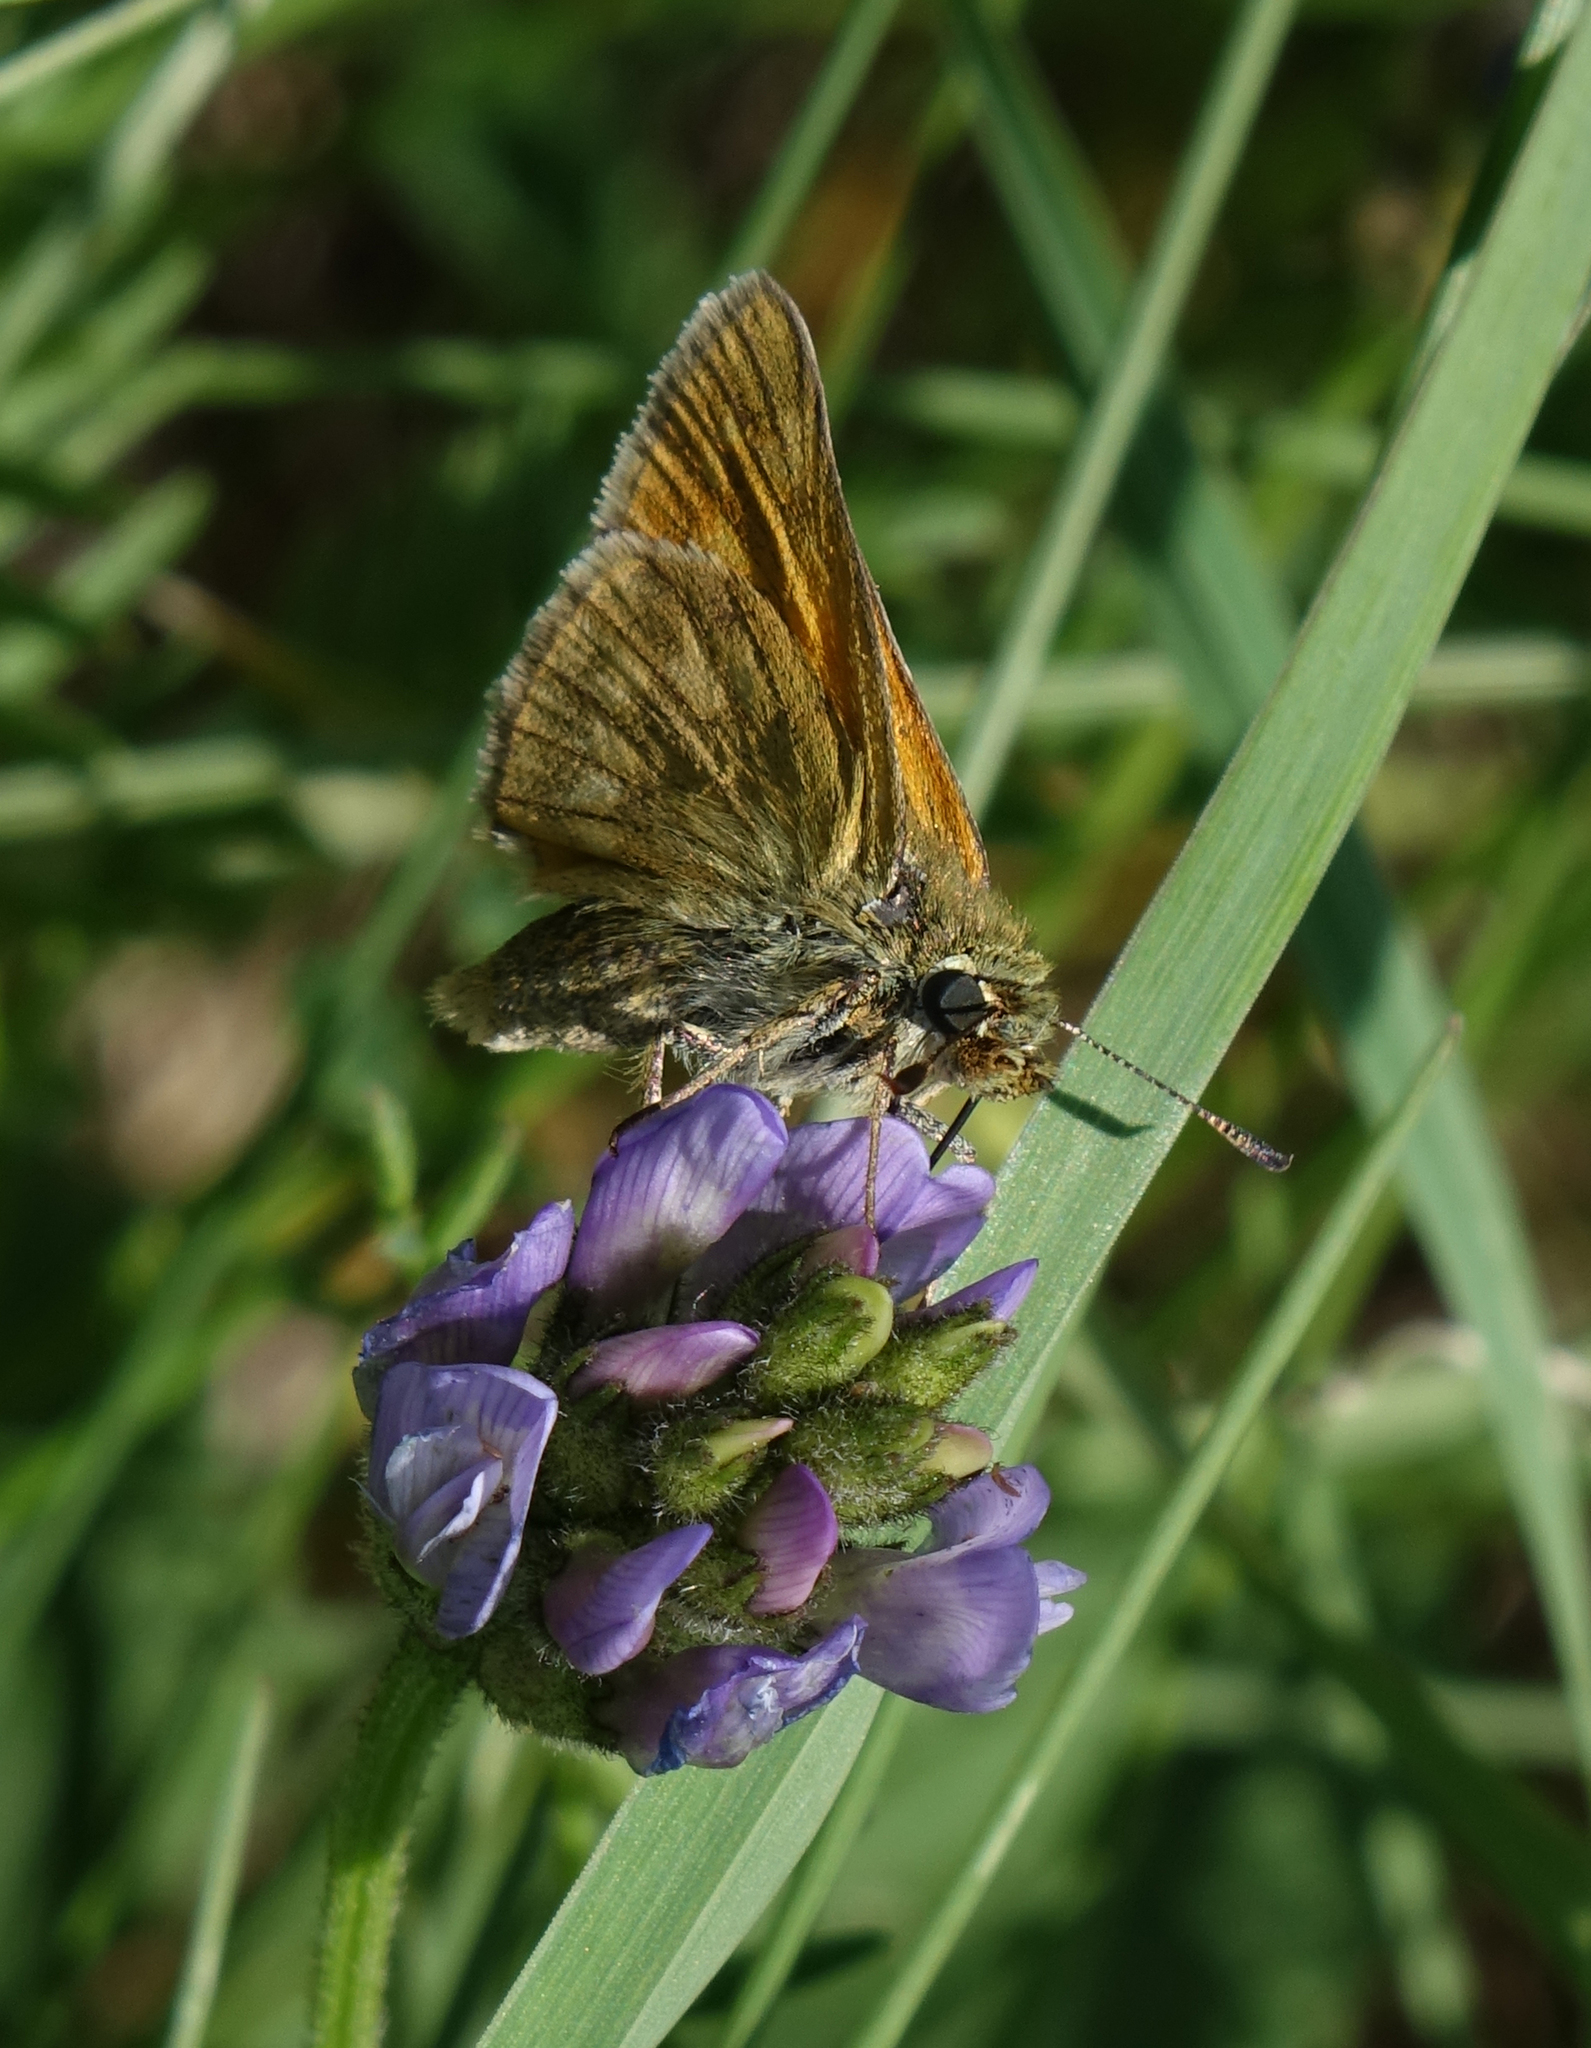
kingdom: Animalia
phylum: Arthropoda
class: Insecta
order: Lepidoptera
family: Hesperiidae
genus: Ochlodes
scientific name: Ochlodes venata
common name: Large skipper
